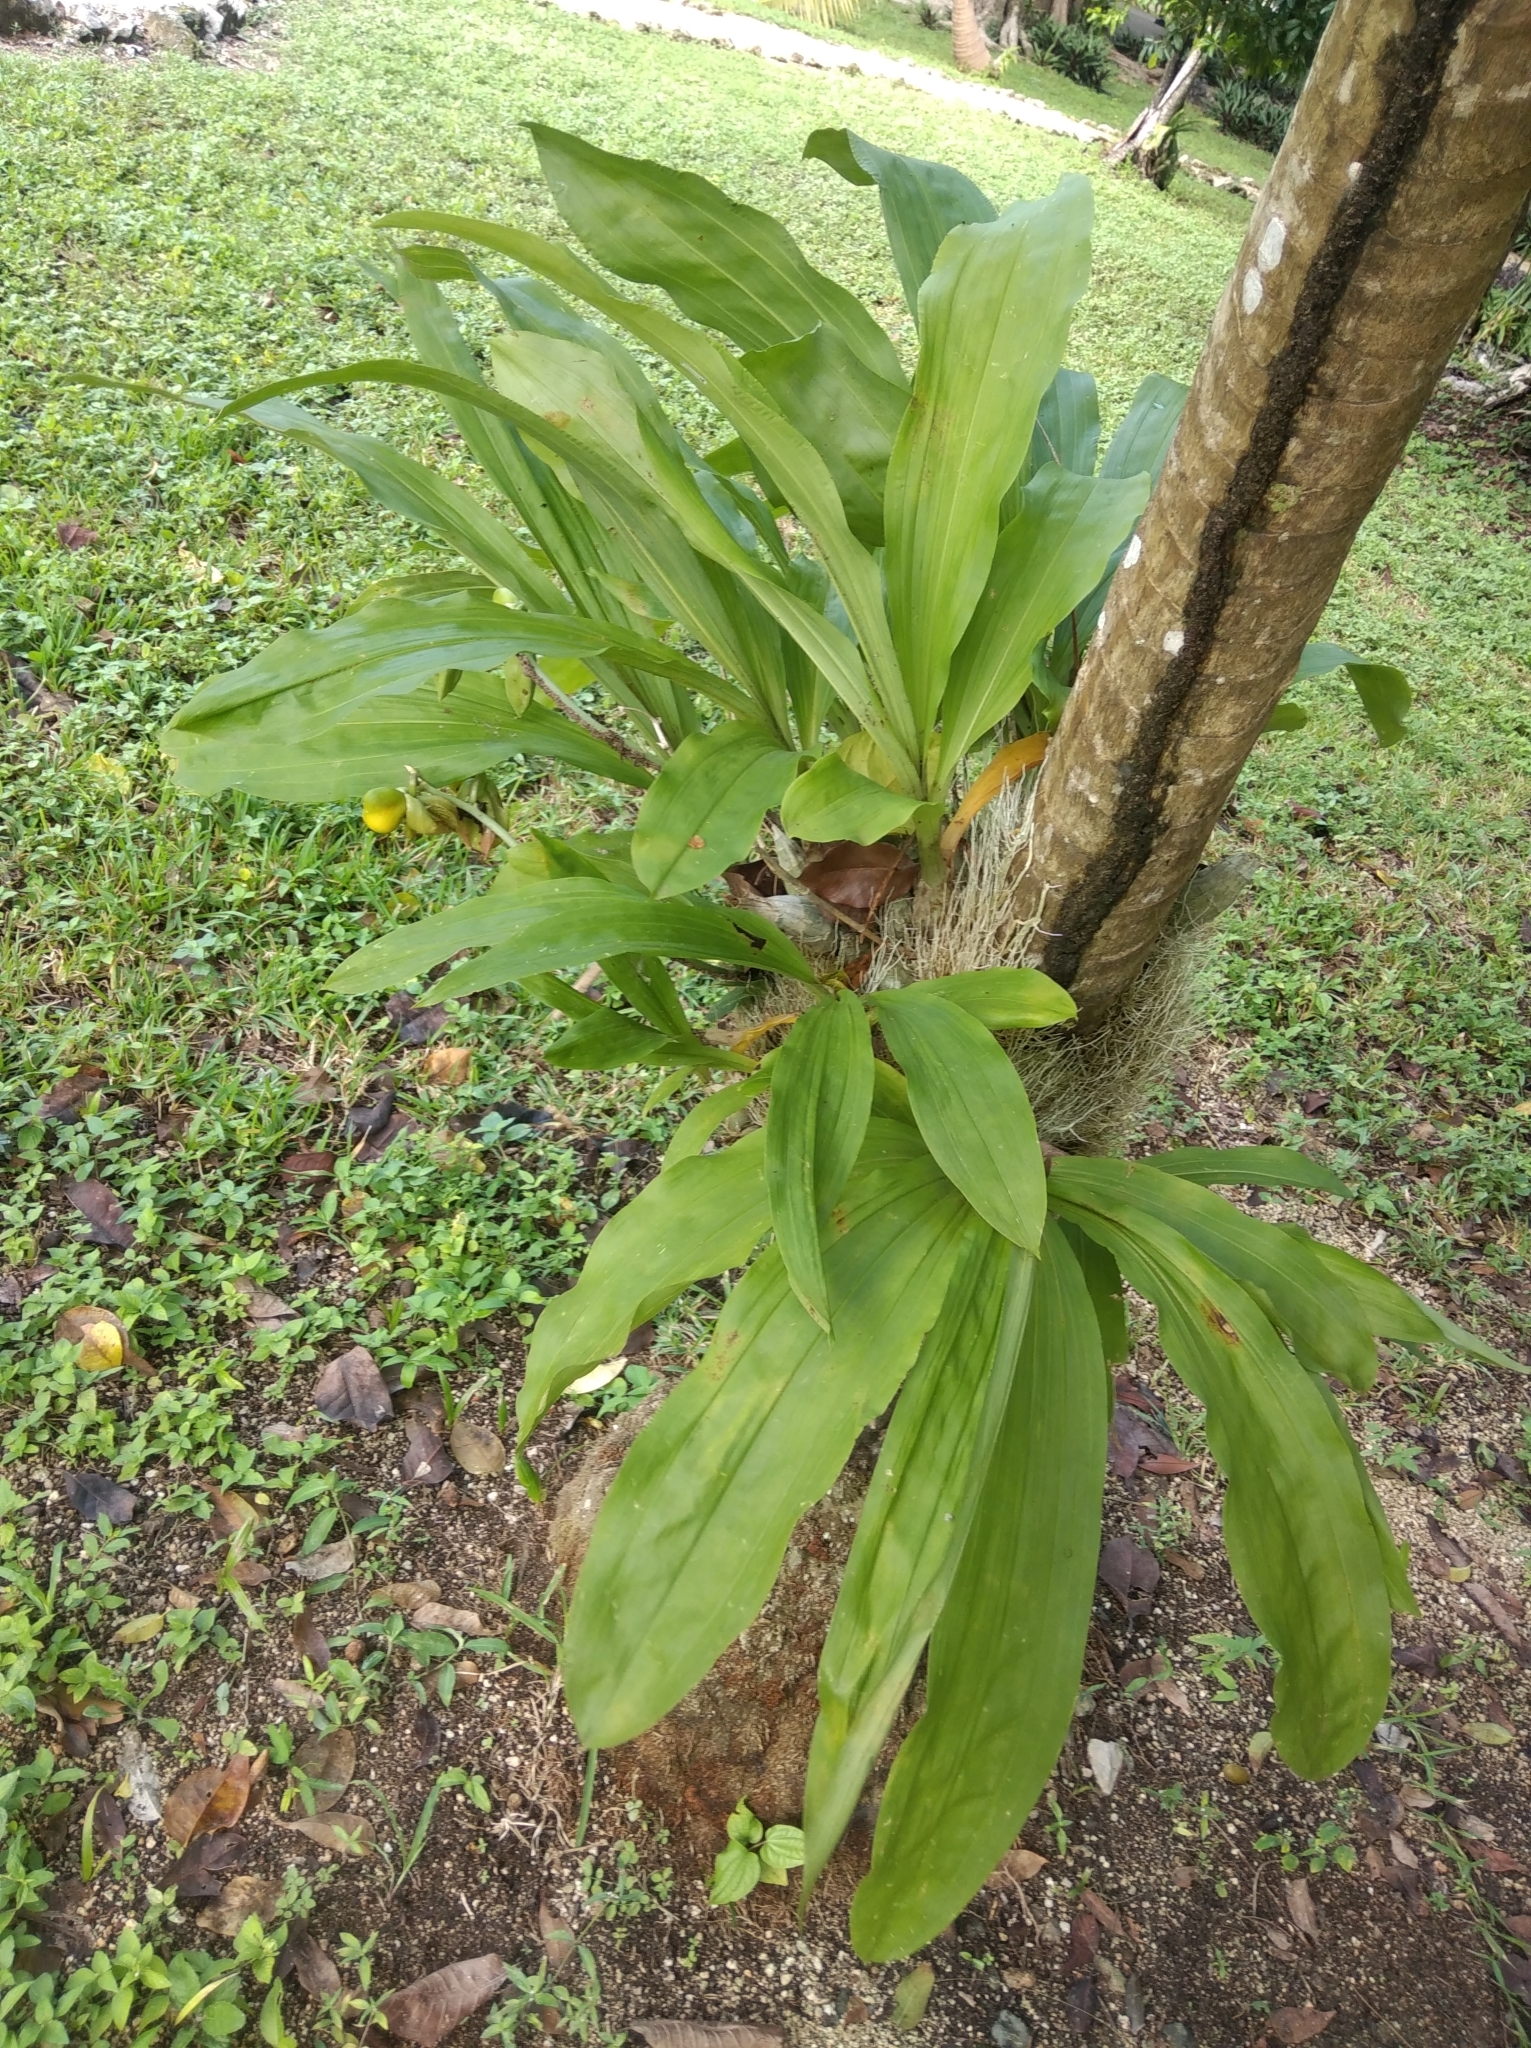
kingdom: Plantae
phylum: Tracheophyta
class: Liliopsida
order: Asparagales
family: Orchidaceae
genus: Catasetum
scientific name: Catasetum integerrimum
